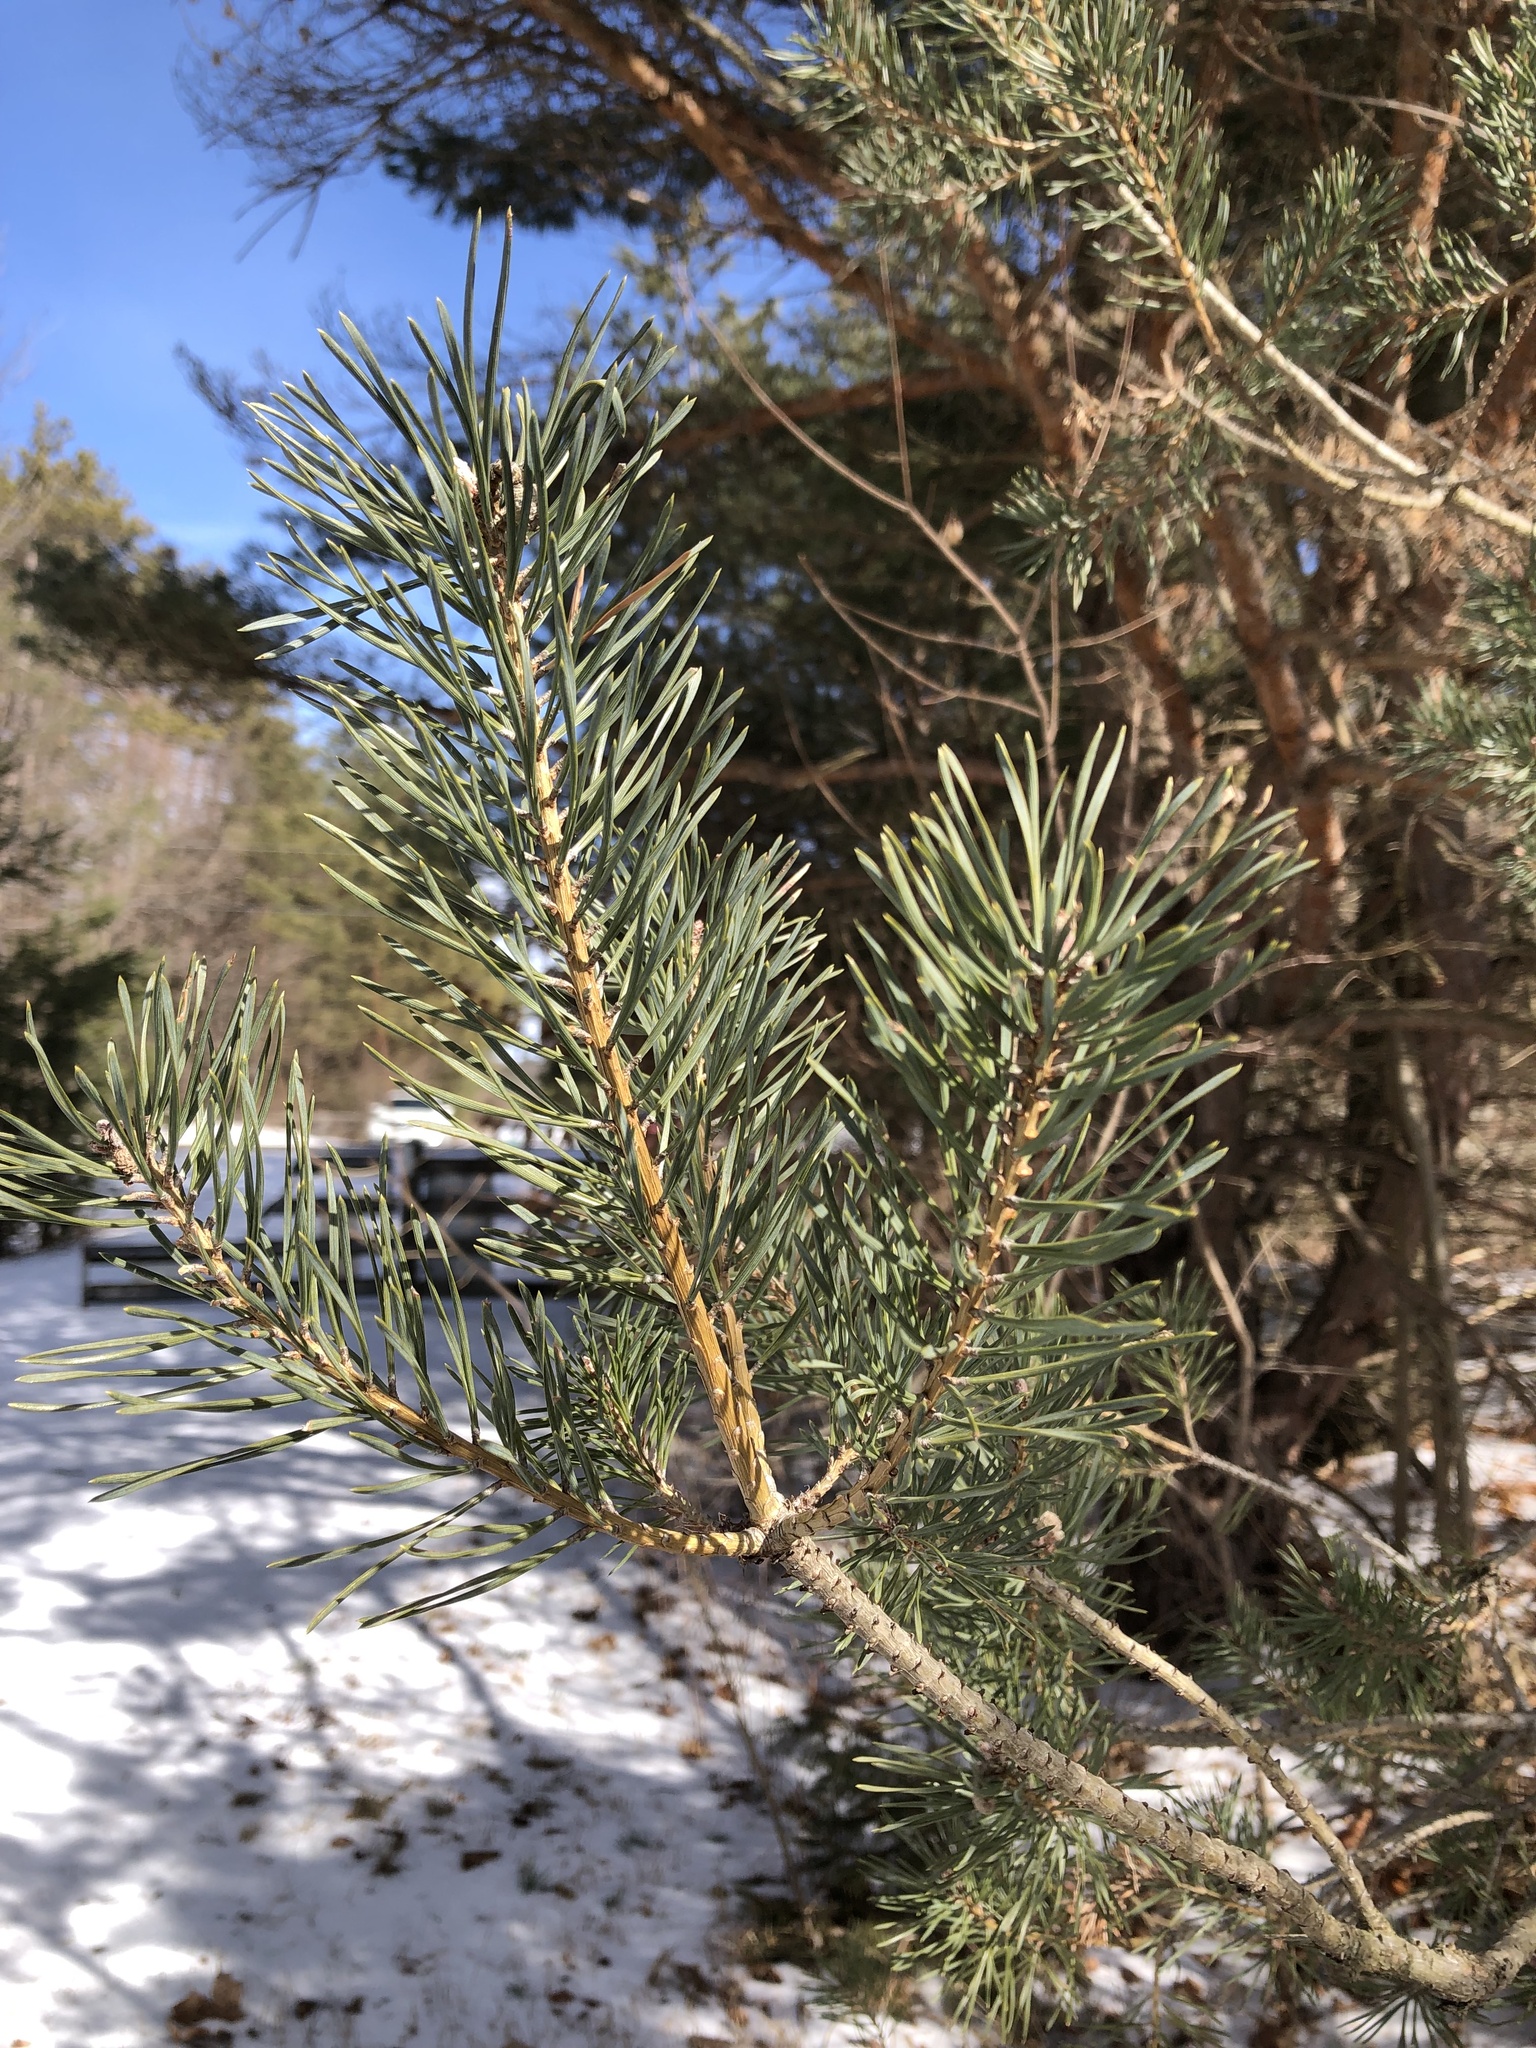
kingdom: Plantae
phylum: Tracheophyta
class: Pinopsida
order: Pinales
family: Pinaceae
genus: Pinus
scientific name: Pinus sylvestris
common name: Scots pine
